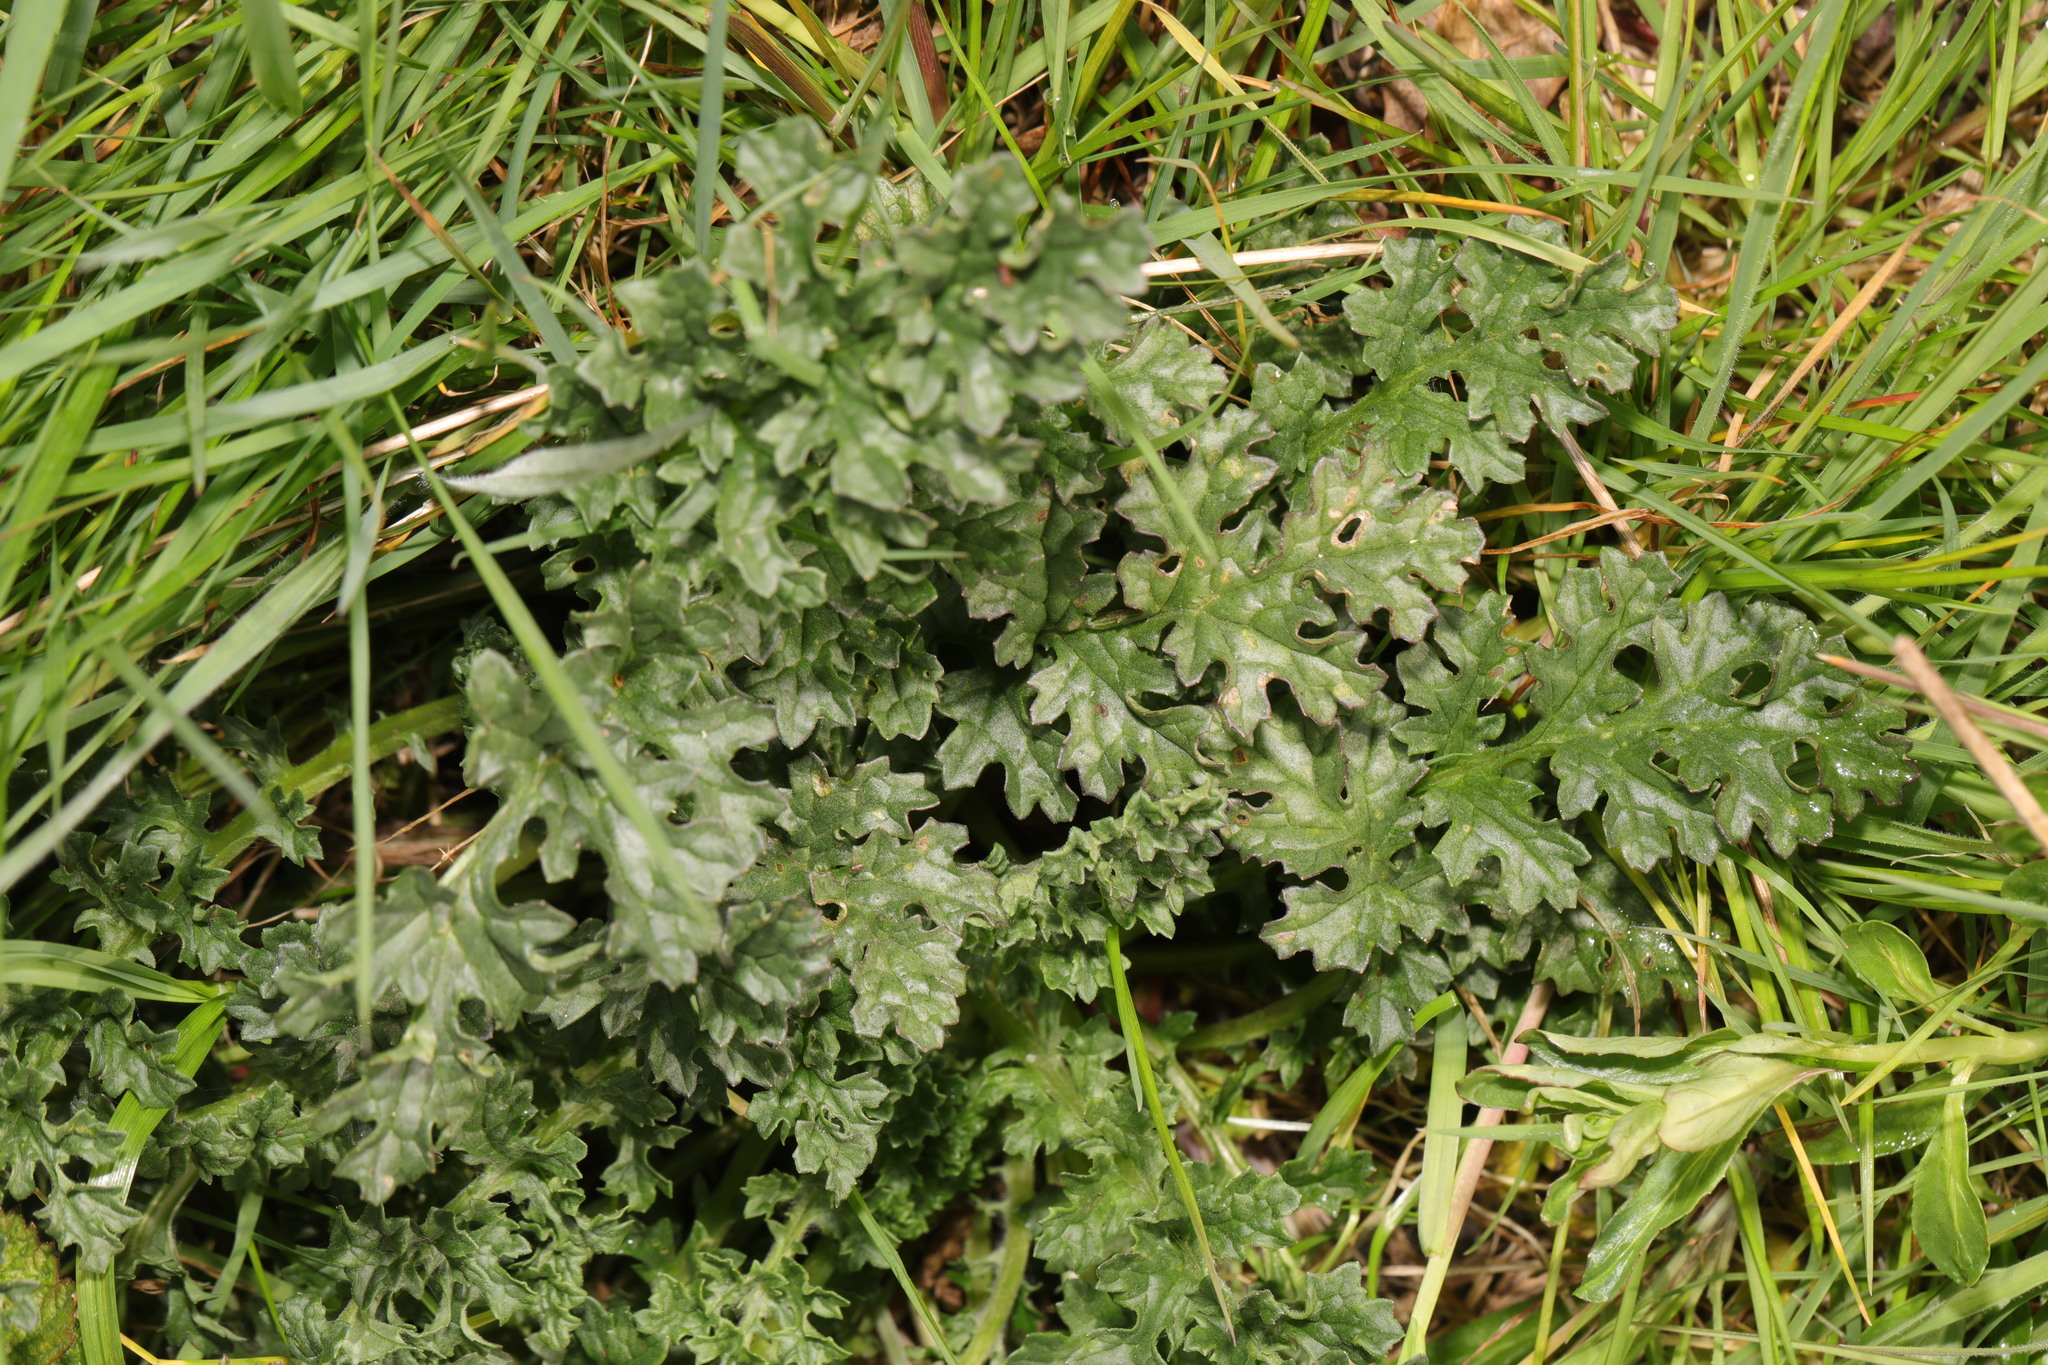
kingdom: Plantae
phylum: Tracheophyta
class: Magnoliopsida
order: Asterales
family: Asteraceae
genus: Jacobaea
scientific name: Jacobaea vulgaris
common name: Stinking willie
